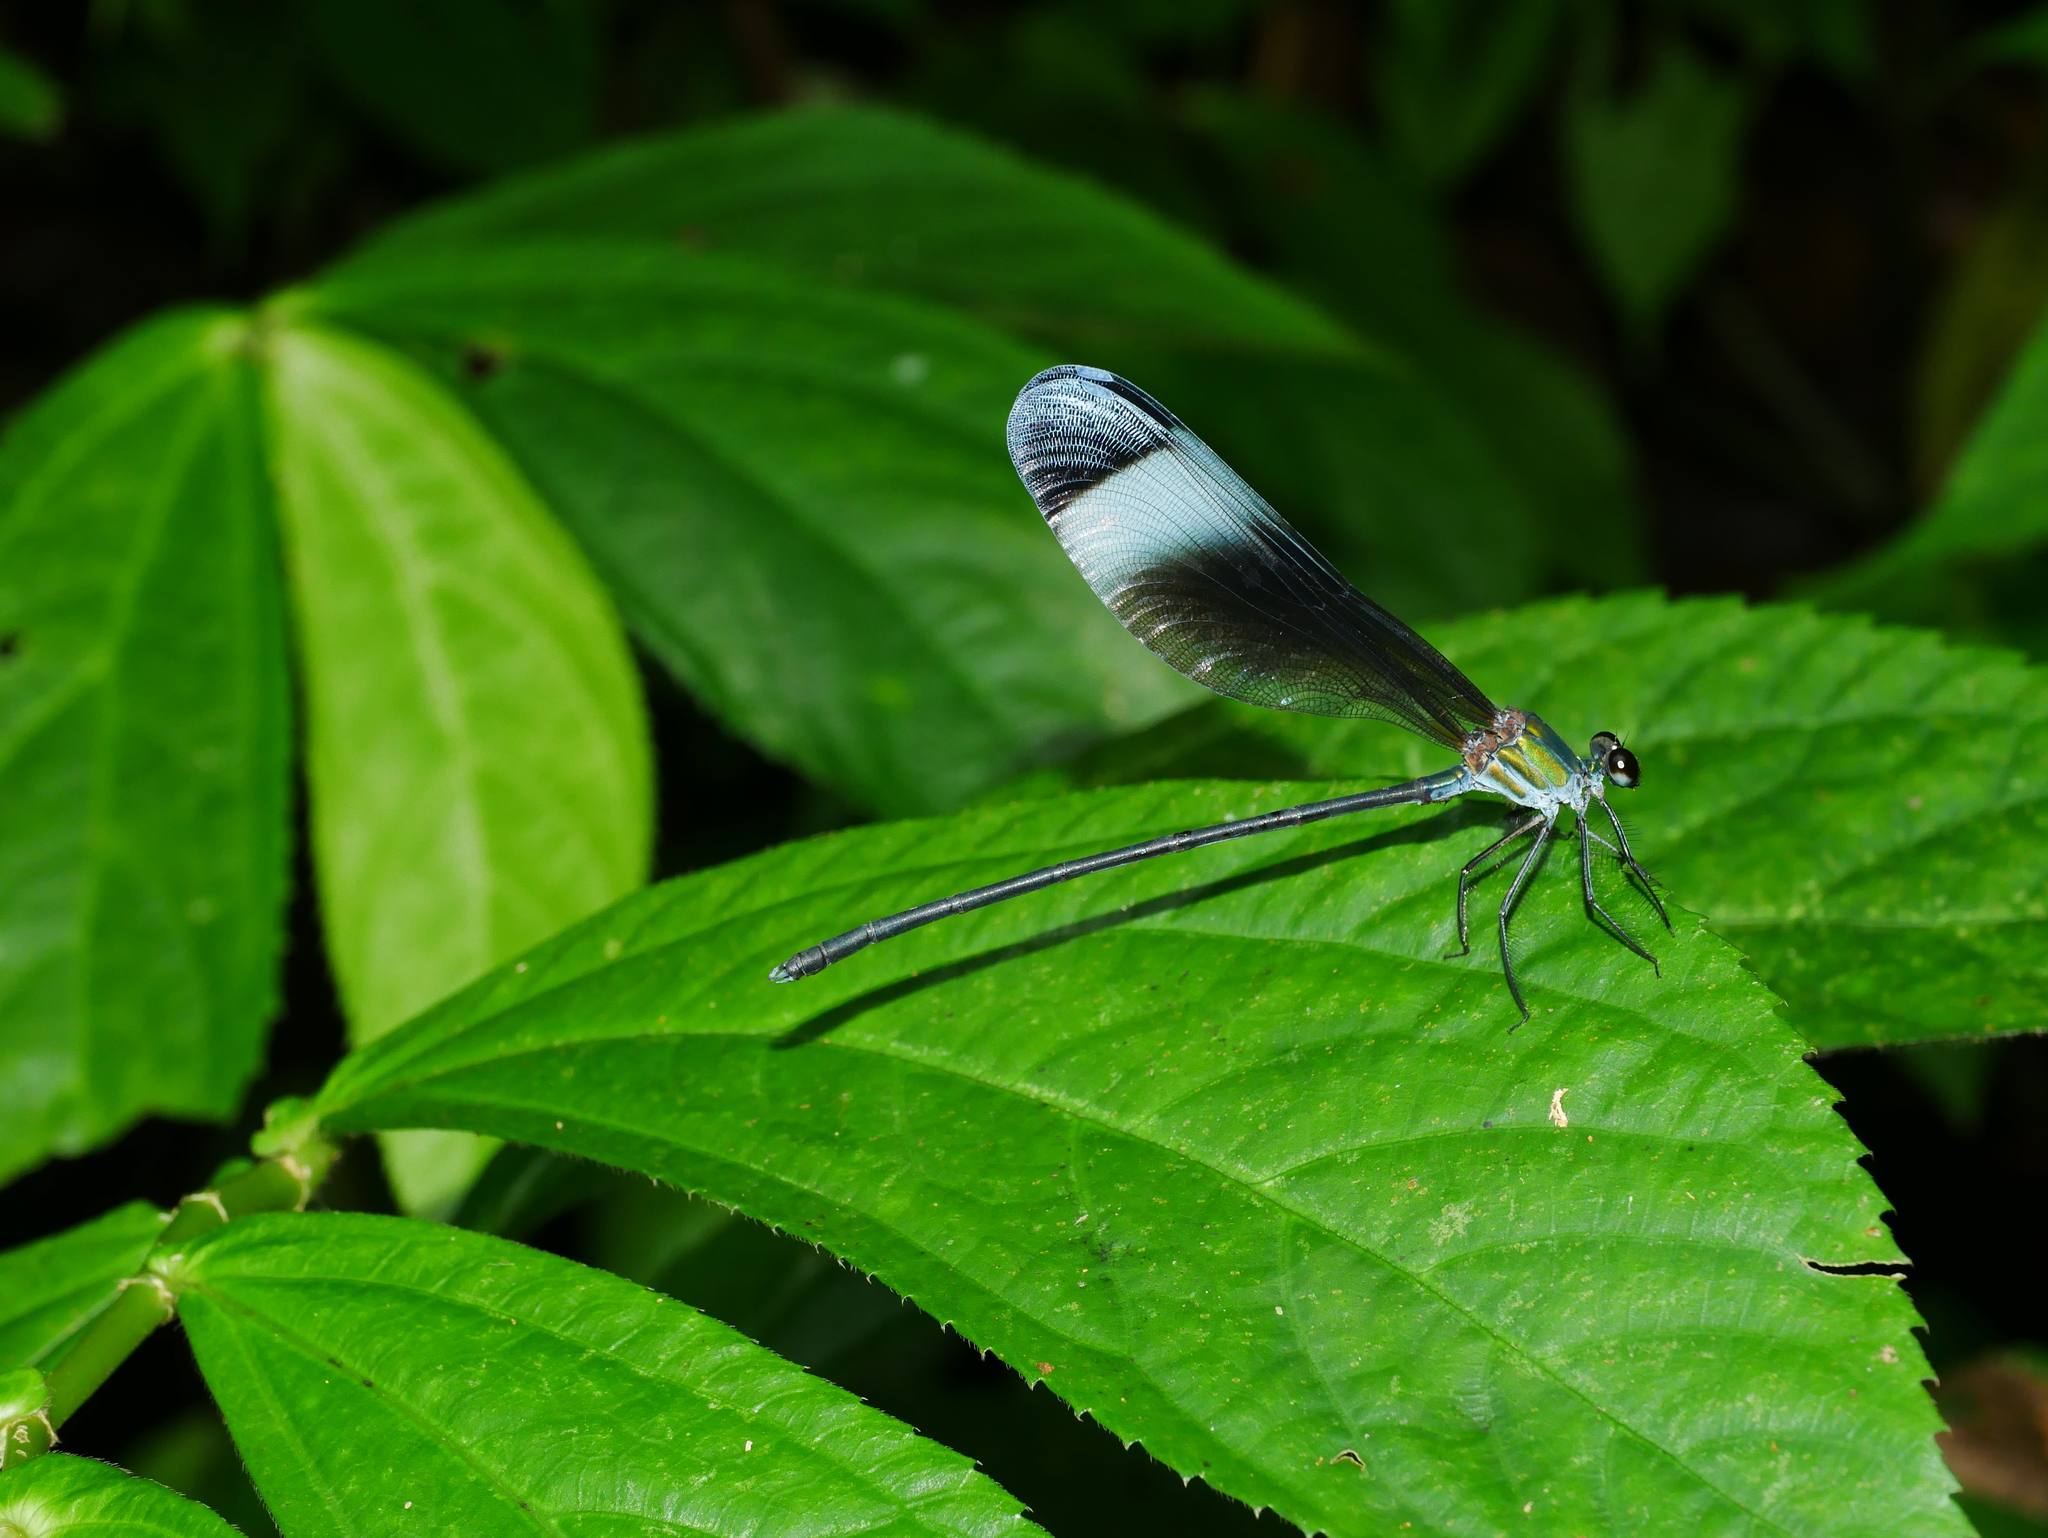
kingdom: Animalia
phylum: Arthropoda
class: Insecta
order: Odonata
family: Calopterygidae
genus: Psolodesmus
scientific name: Psolodesmus mandarinus
